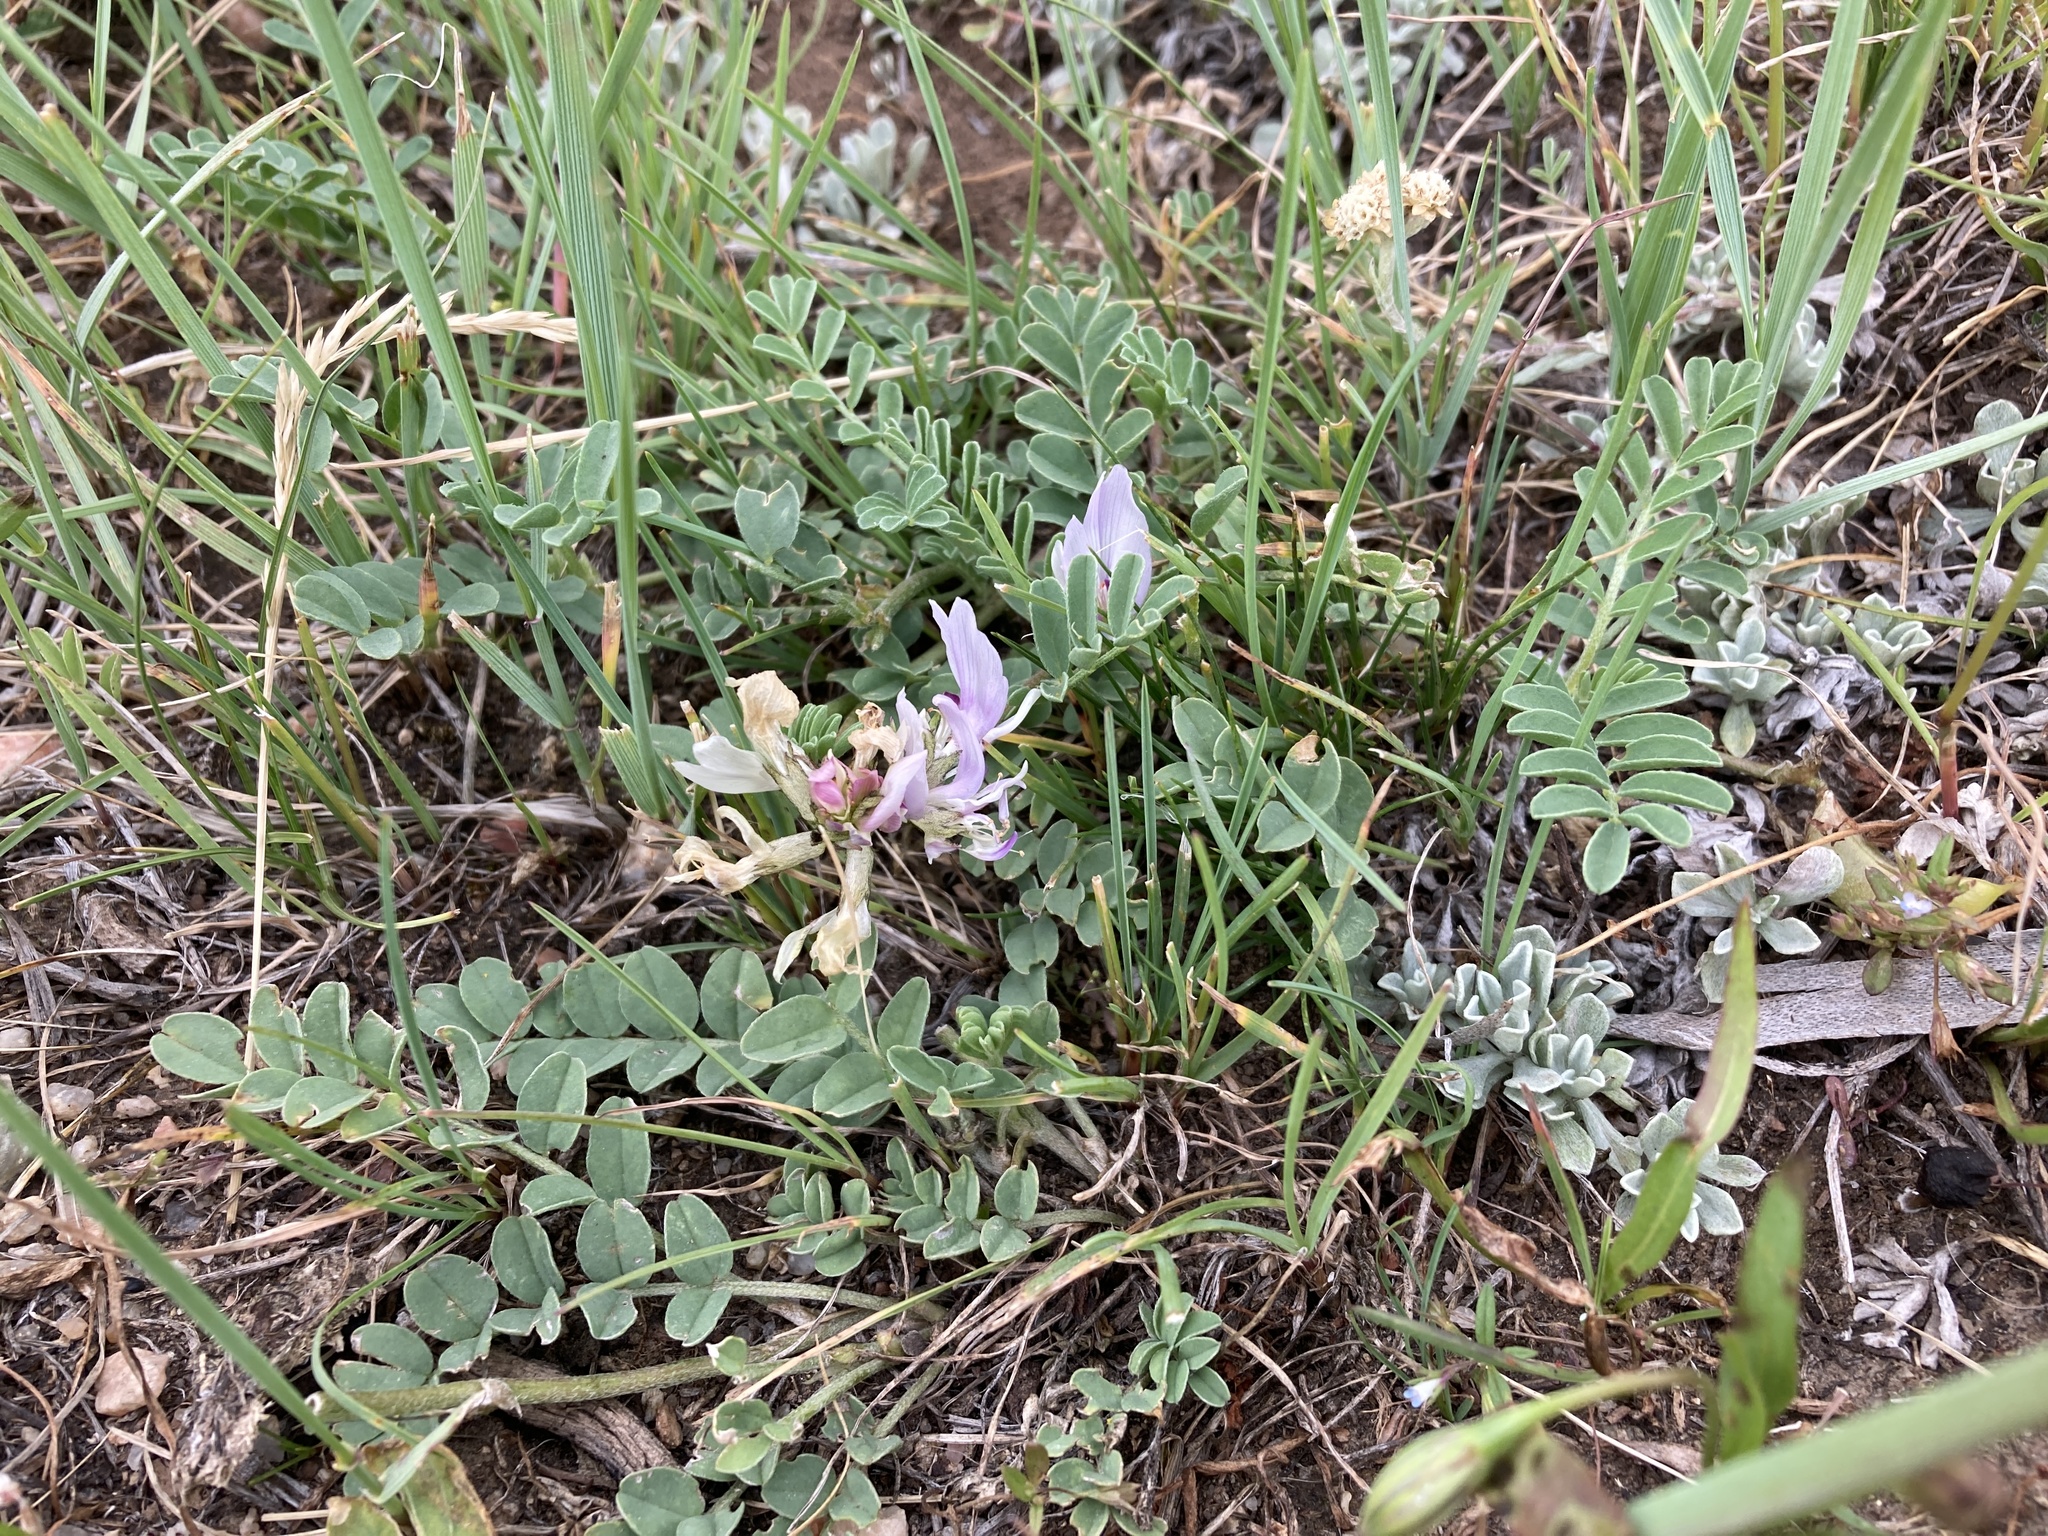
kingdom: Plantae
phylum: Tracheophyta
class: Magnoliopsida
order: Fabales
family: Fabaceae
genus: Astragalus
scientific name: Astragalus crassicarpus
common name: Ground-plum milk-vetch
